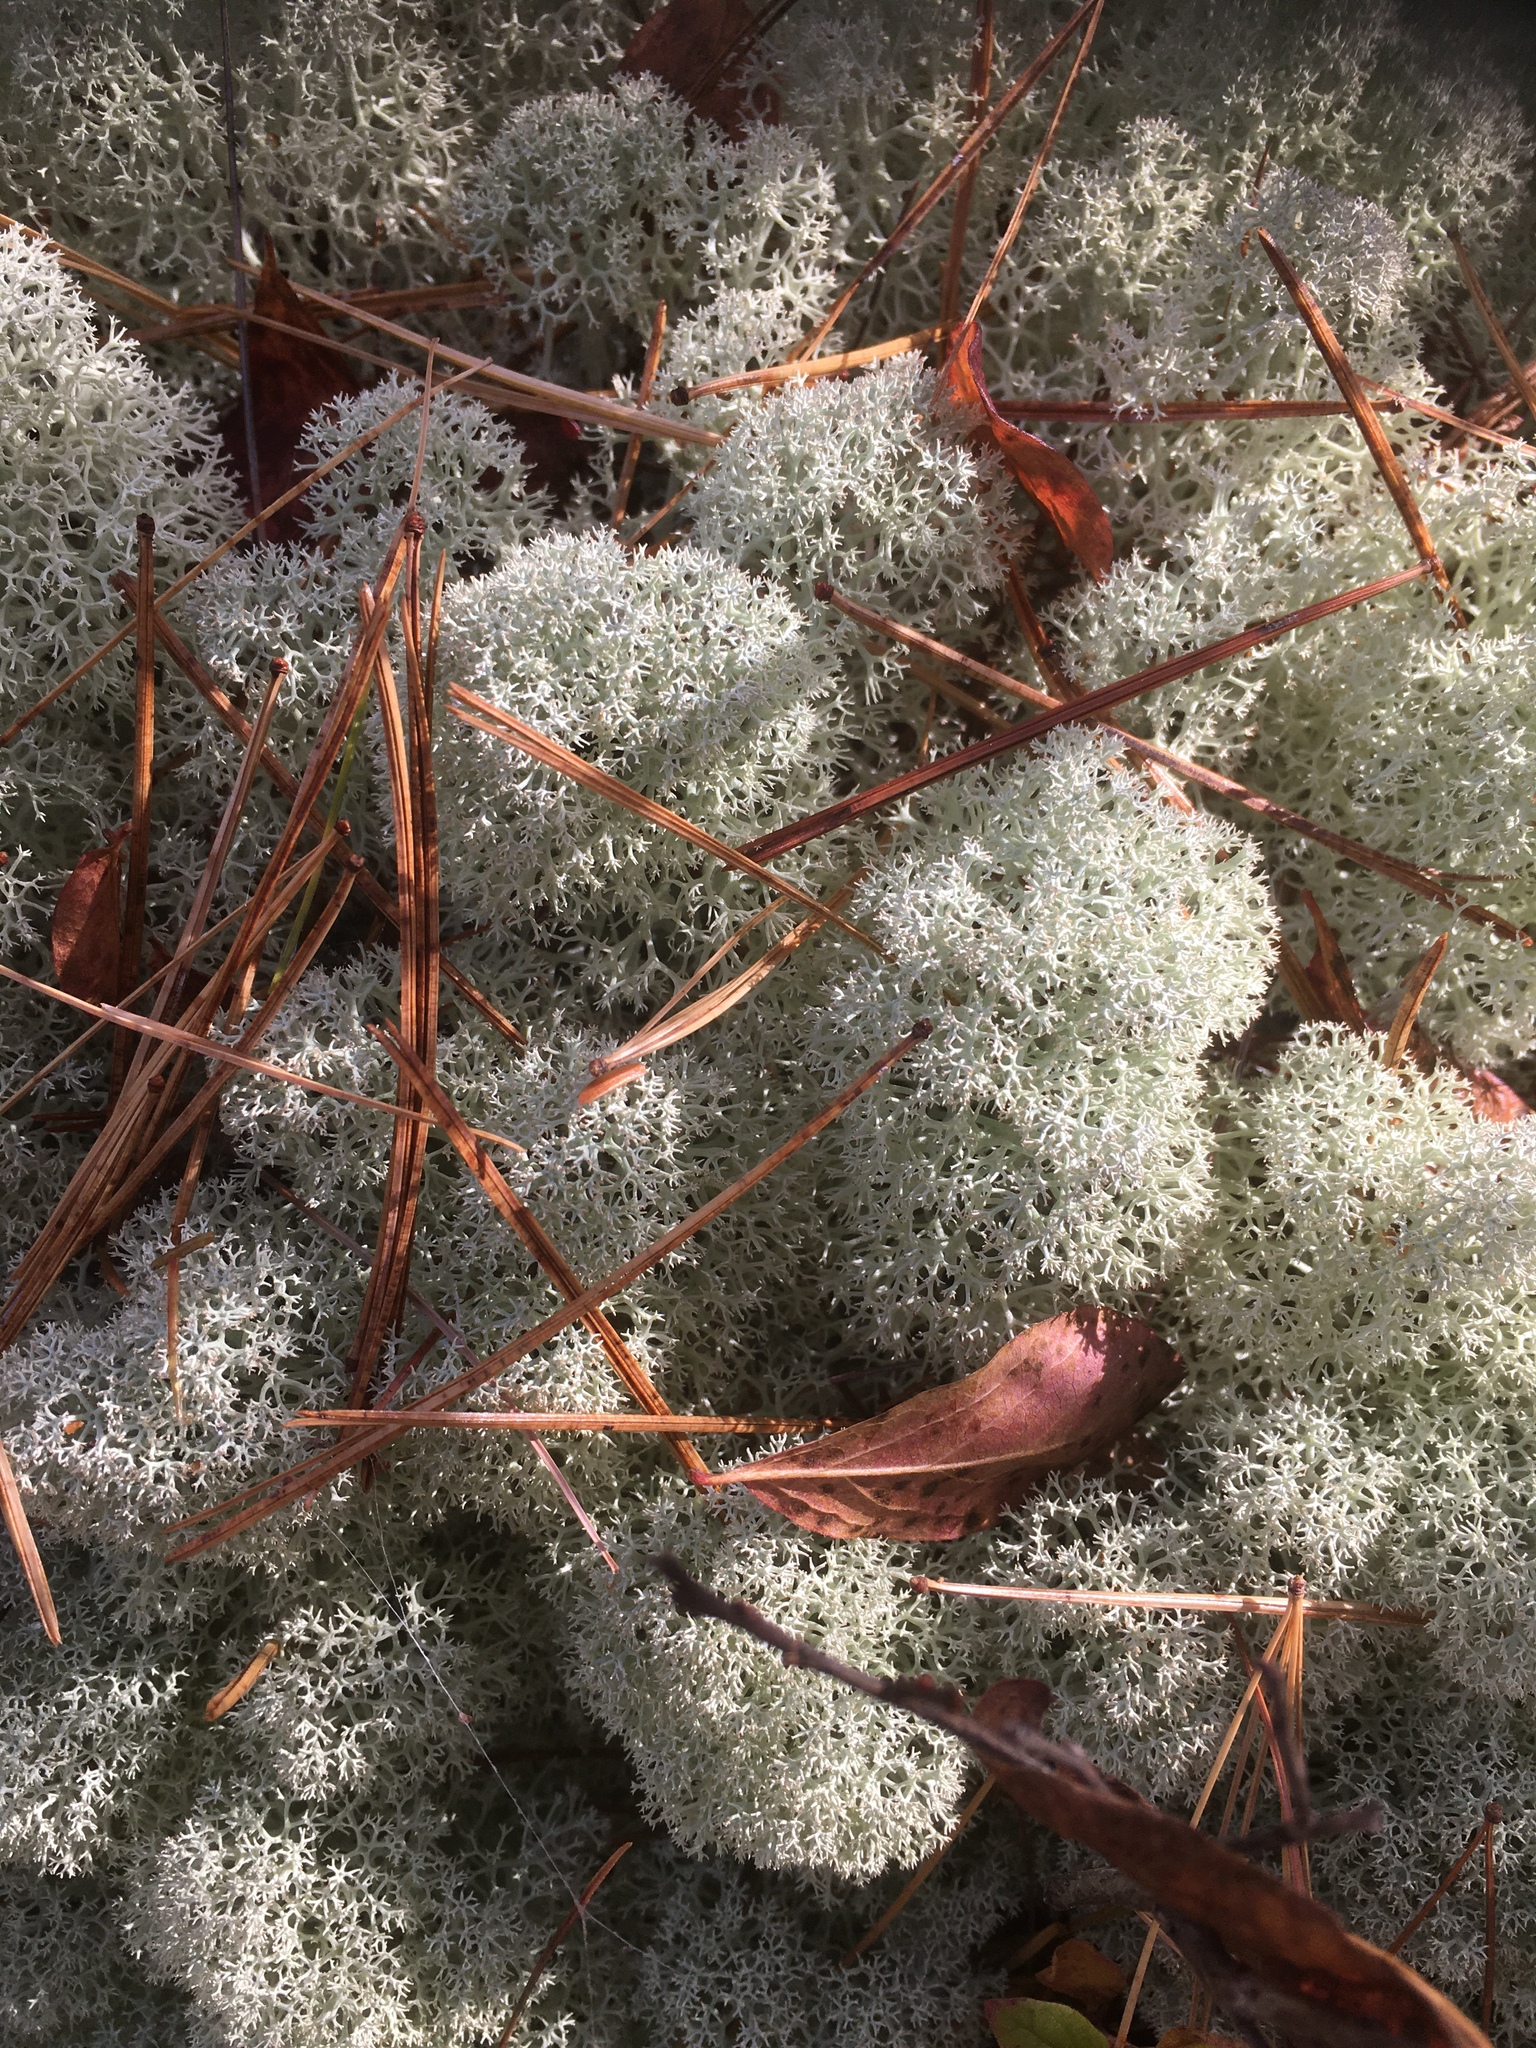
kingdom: Fungi
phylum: Ascomycota
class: Lecanoromycetes
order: Lecanorales
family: Cladoniaceae
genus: Cladonia
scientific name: Cladonia stellaris
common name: Star-tipped reindeer lichen
